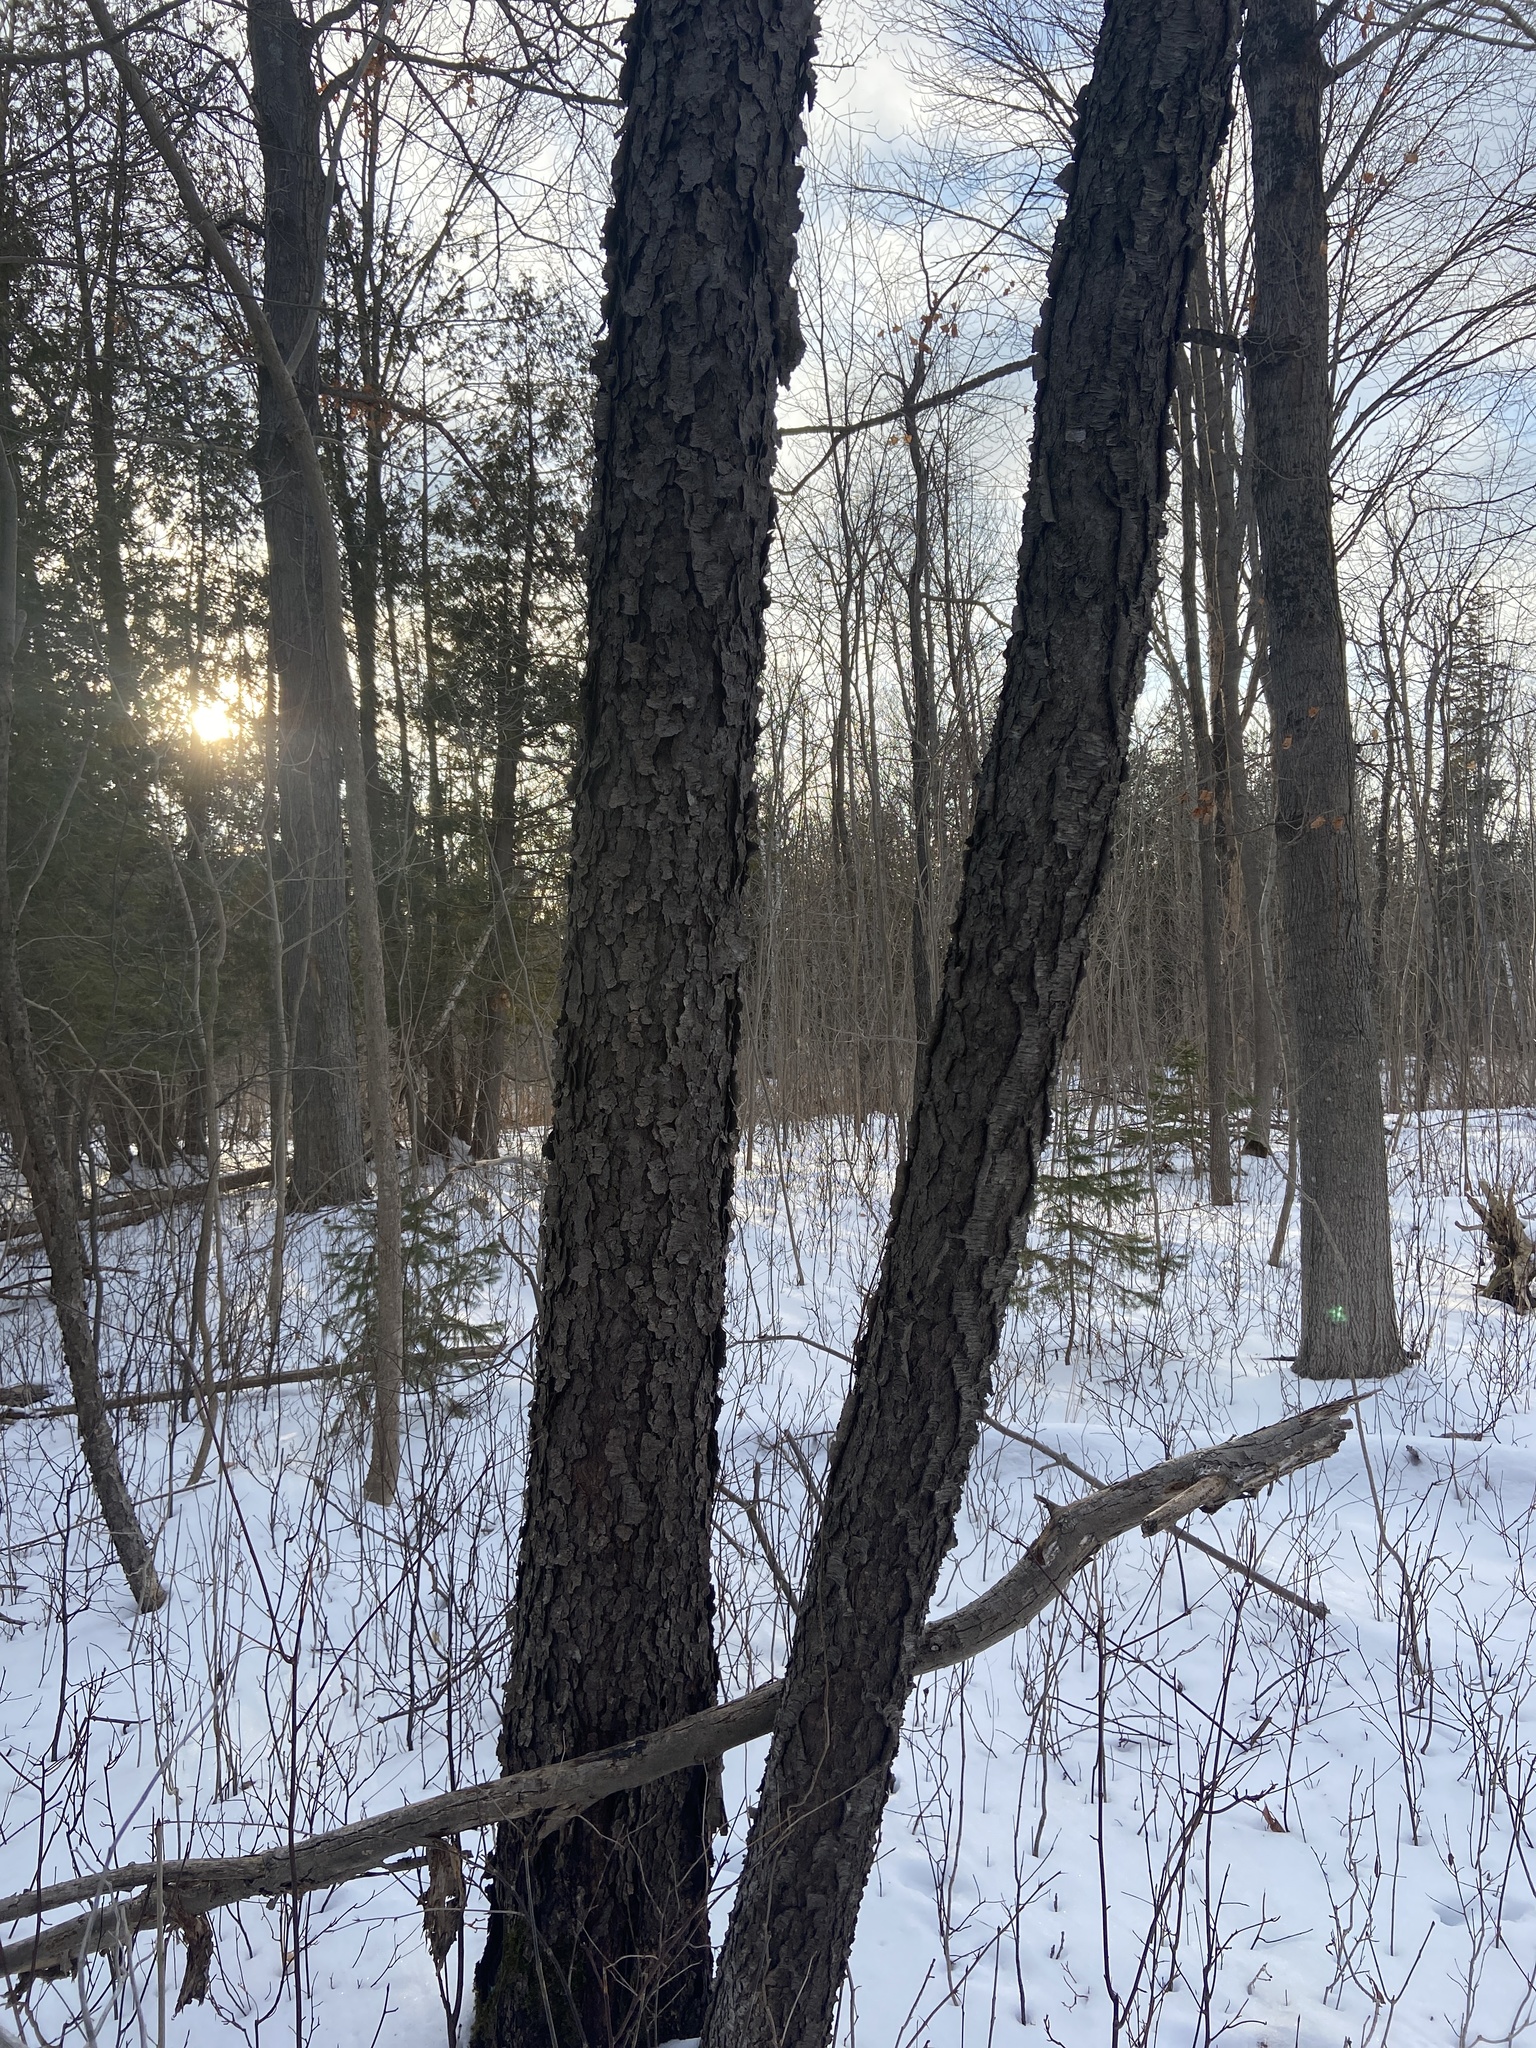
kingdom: Plantae
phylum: Tracheophyta
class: Magnoliopsida
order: Rosales
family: Rosaceae
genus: Prunus
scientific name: Prunus serotina
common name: Black cherry
